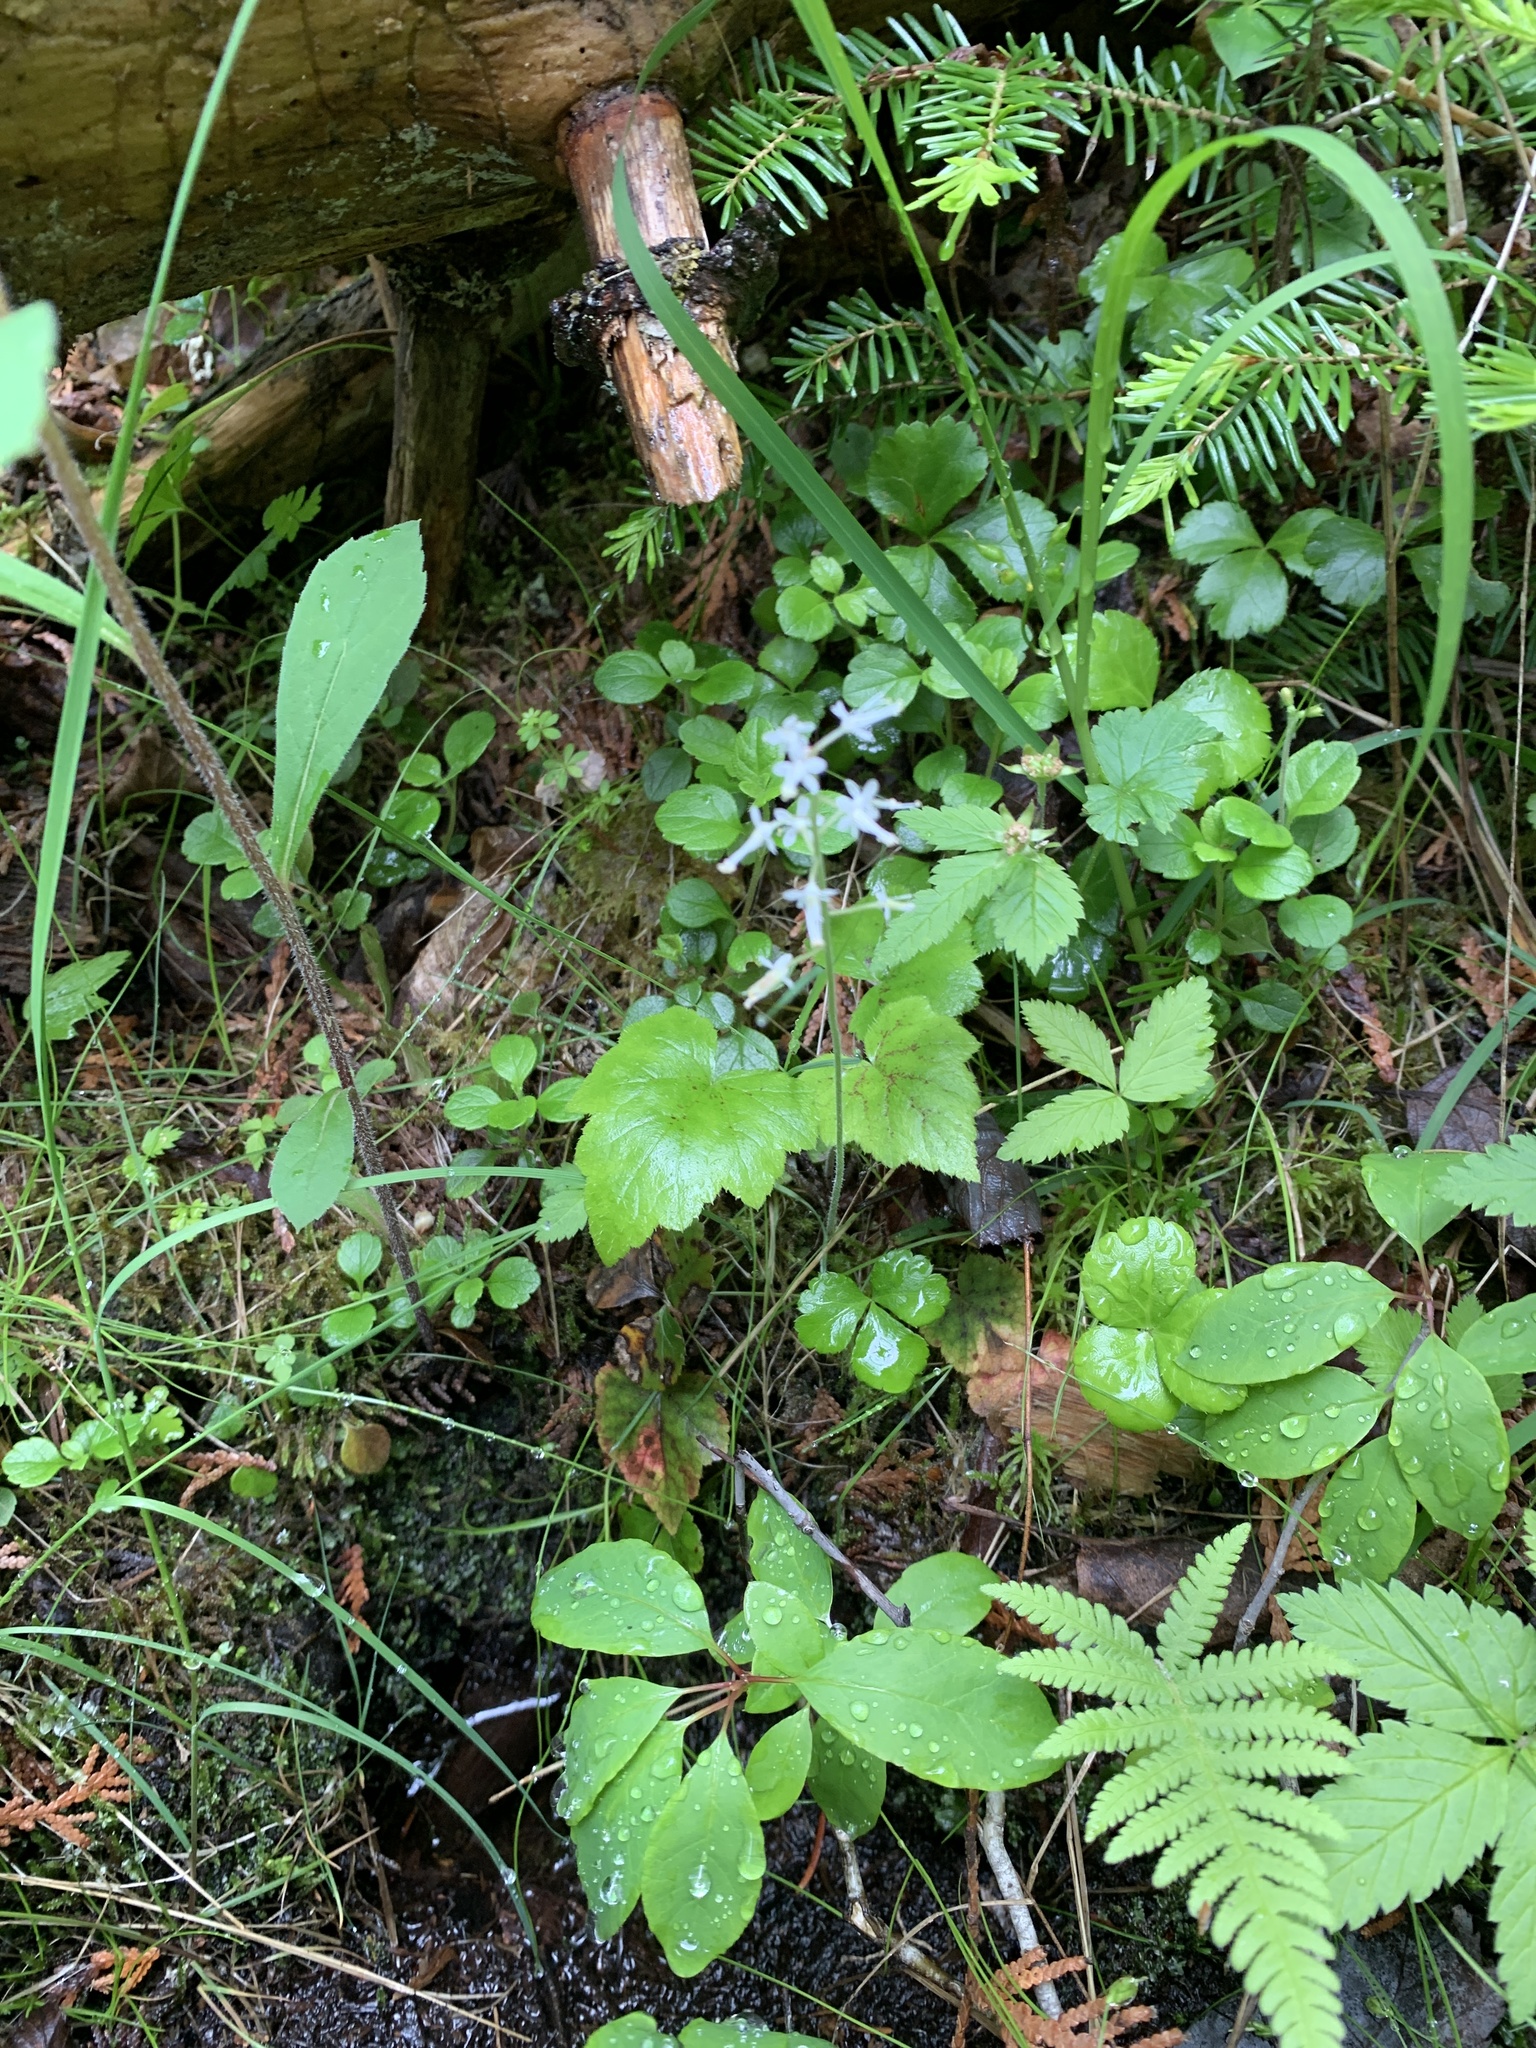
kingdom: Plantae
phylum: Tracheophyta
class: Magnoliopsida
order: Saxifragales
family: Saxifragaceae
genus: Tiarella
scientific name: Tiarella stolonifera
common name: Stoloniferous foamflower
